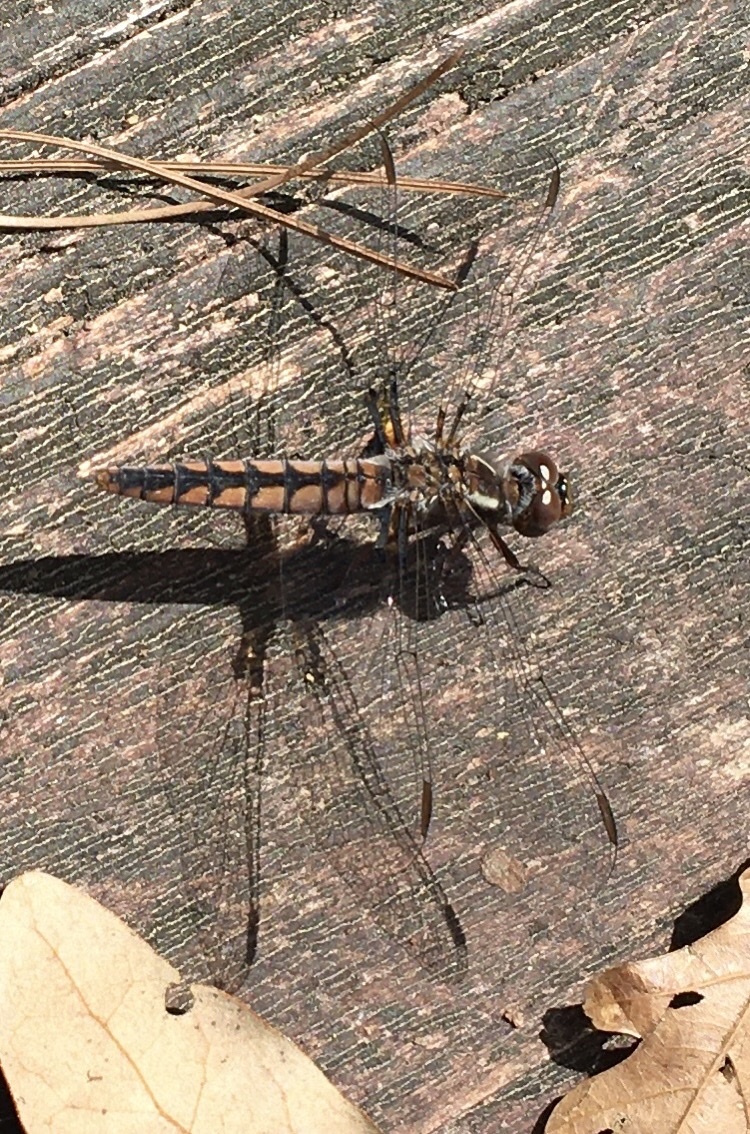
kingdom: Animalia
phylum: Arthropoda
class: Insecta
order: Odonata
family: Libellulidae
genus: Ladona
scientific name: Ladona deplanata
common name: Blue corporal
